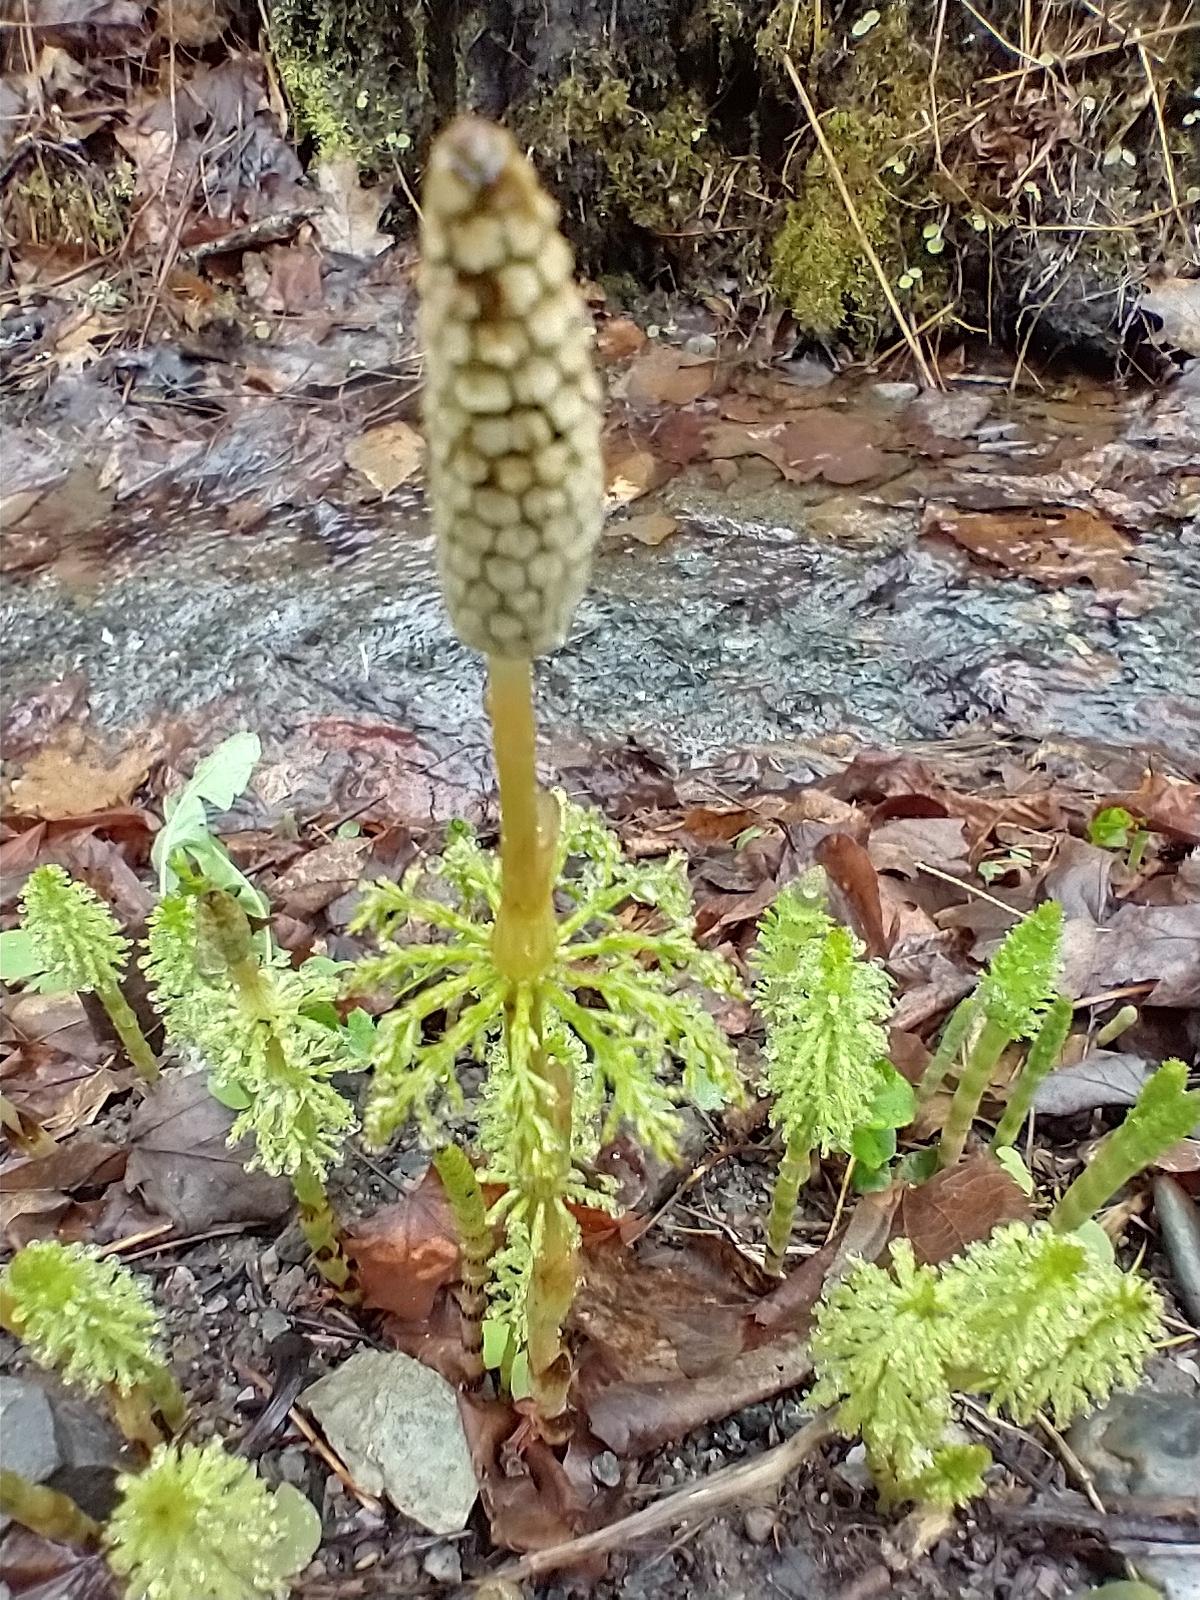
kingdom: Plantae
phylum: Tracheophyta
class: Polypodiopsida
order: Equisetales
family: Equisetaceae
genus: Equisetum
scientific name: Equisetum sylvaticum
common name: Wood horsetail
